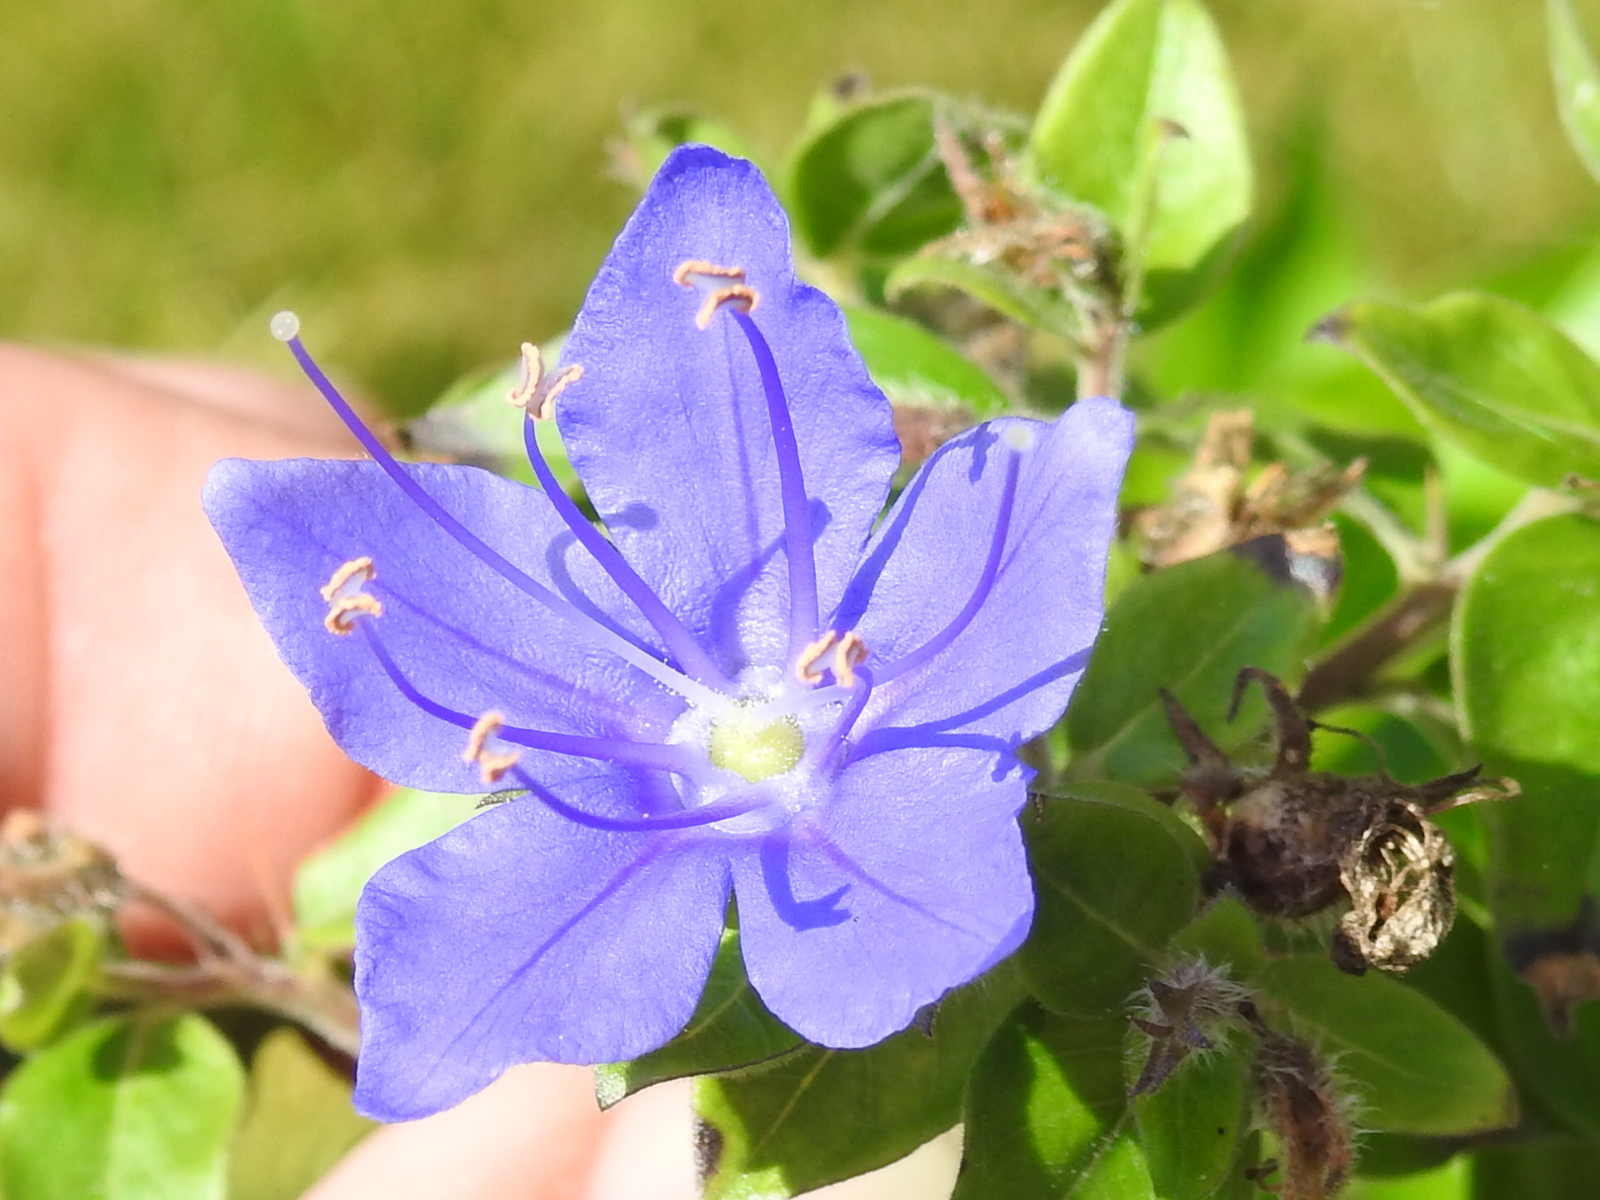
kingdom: Plantae
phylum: Tracheophyta
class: Magnoliopsida
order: Solanales
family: Hydroleaceae
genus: Hydrolea
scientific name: Hydrolea ovata
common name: Ovate false fiddleleaf
